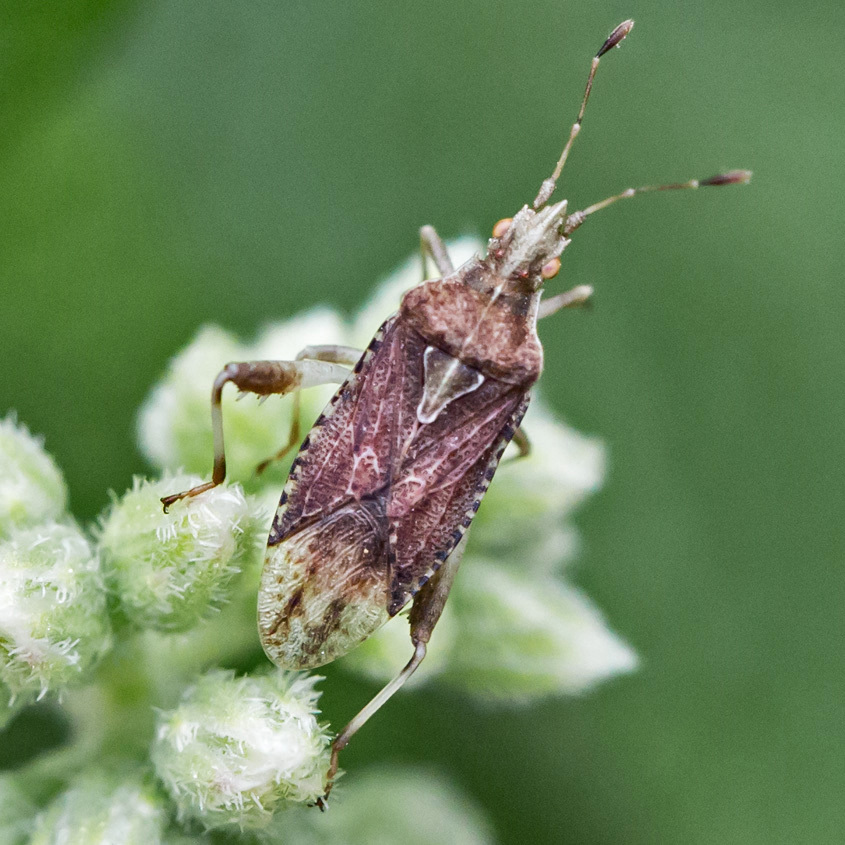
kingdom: Animalia
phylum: Arthropoda
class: Insecta
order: Hemiptera
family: Rhopalidae
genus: Harmostes
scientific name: Harmostes fraterculus
